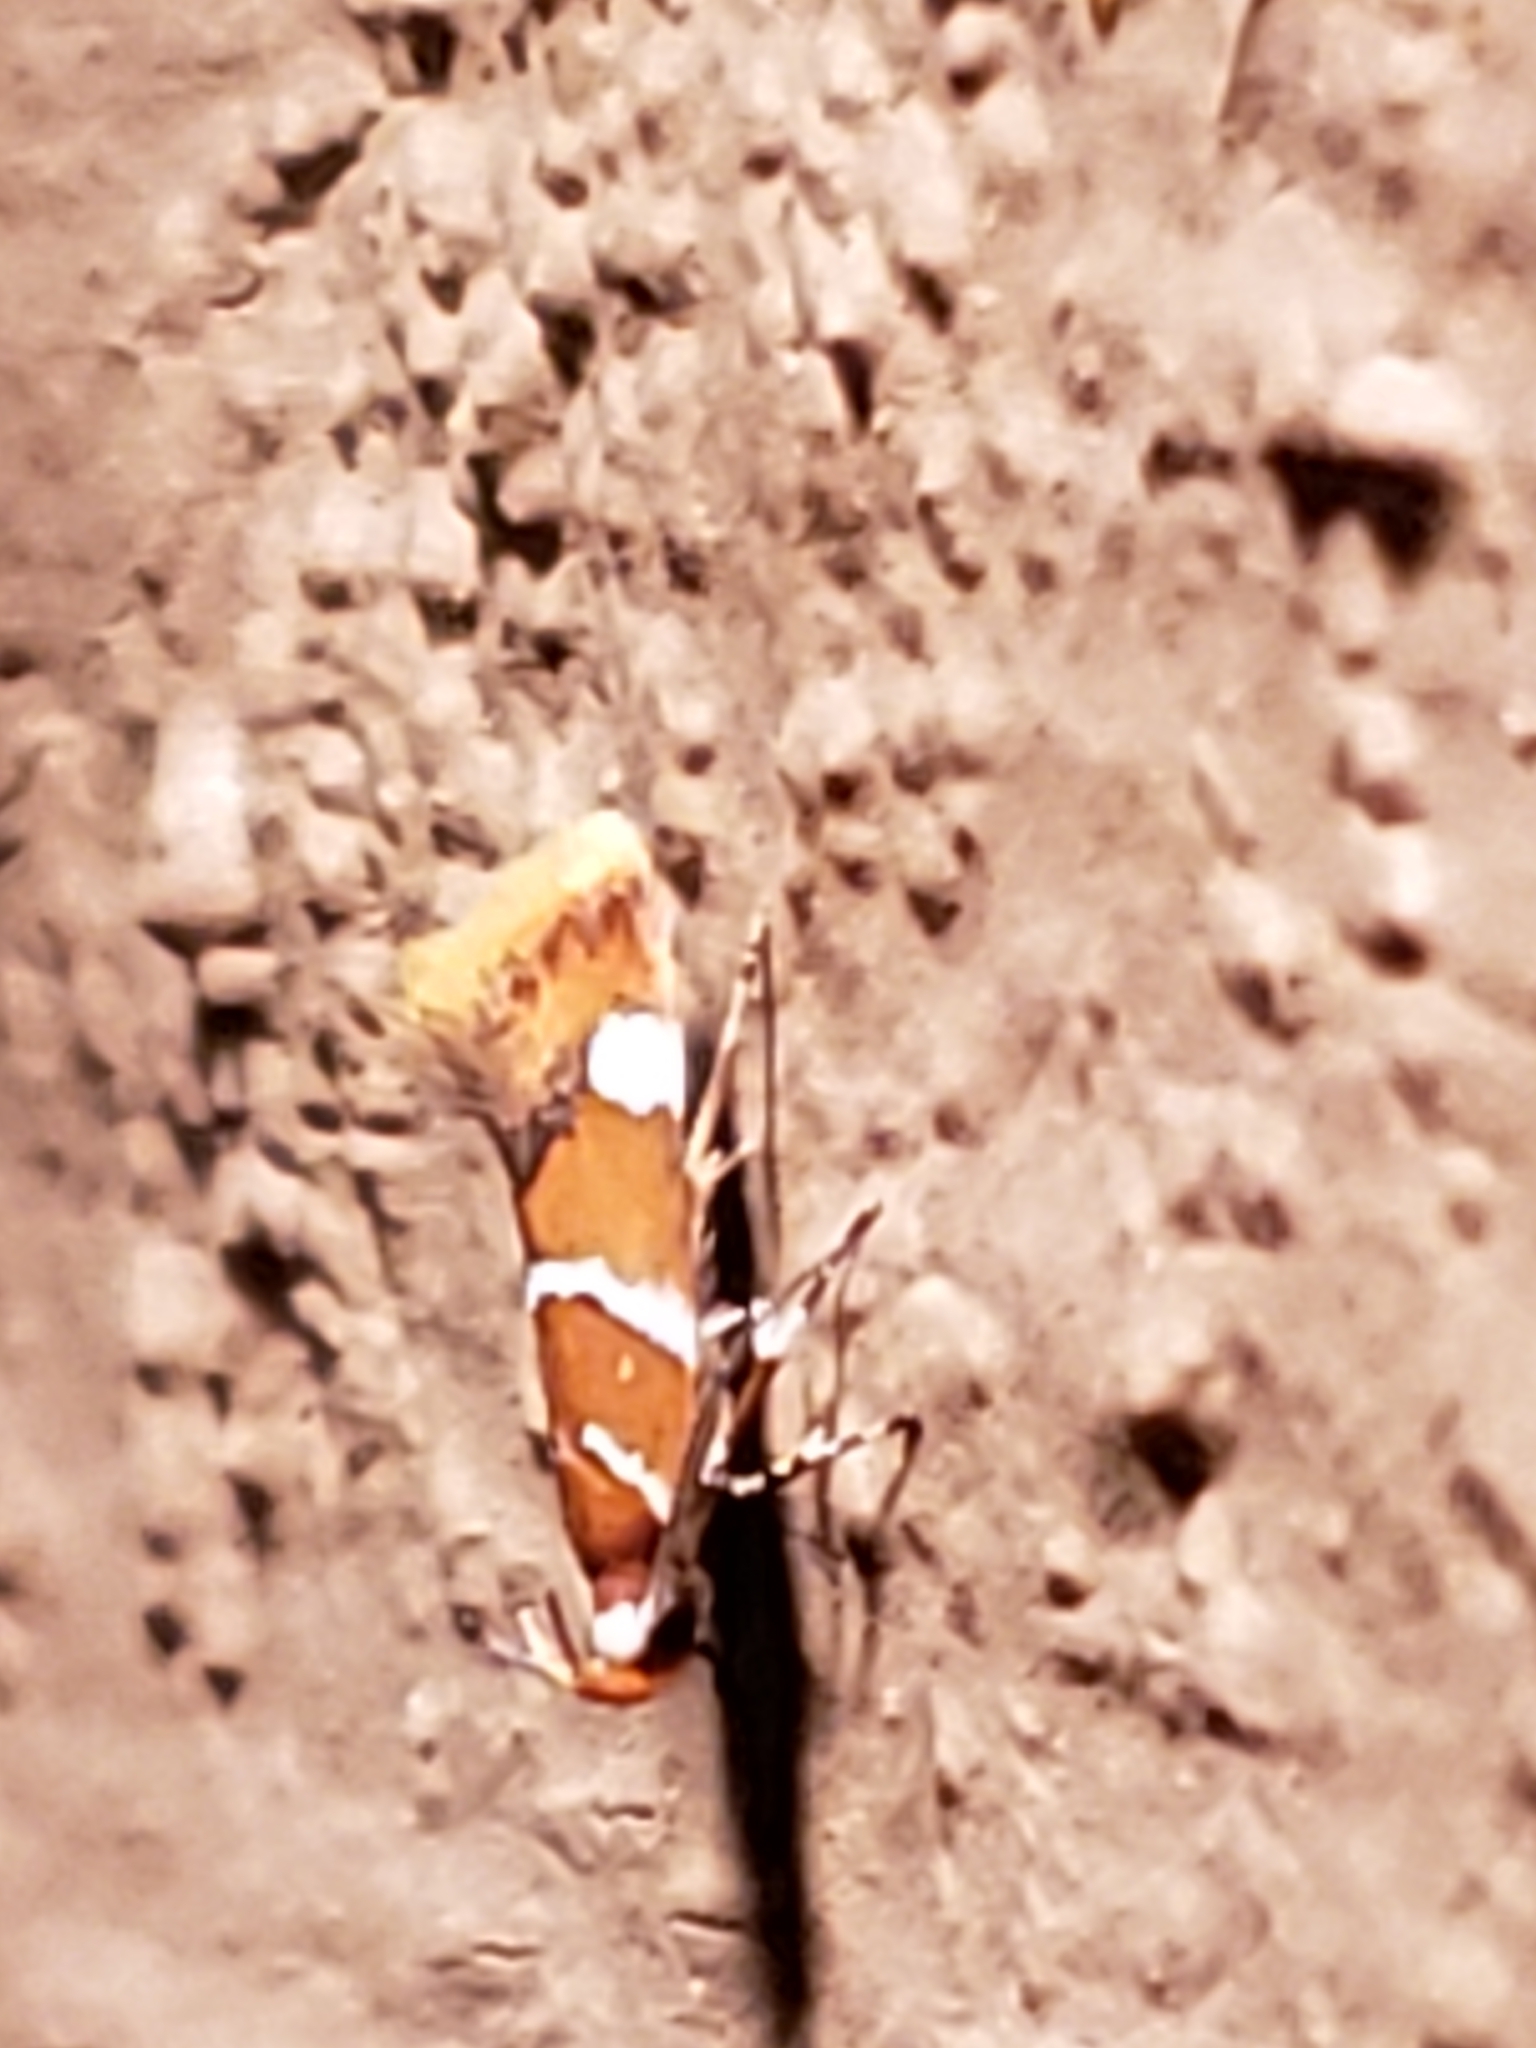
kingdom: Animalia
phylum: Arthropoda
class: Insecta
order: Lepidoptera
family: Oecophoridae
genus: Promalactis
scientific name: Promalactis suzukiella
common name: Moth
